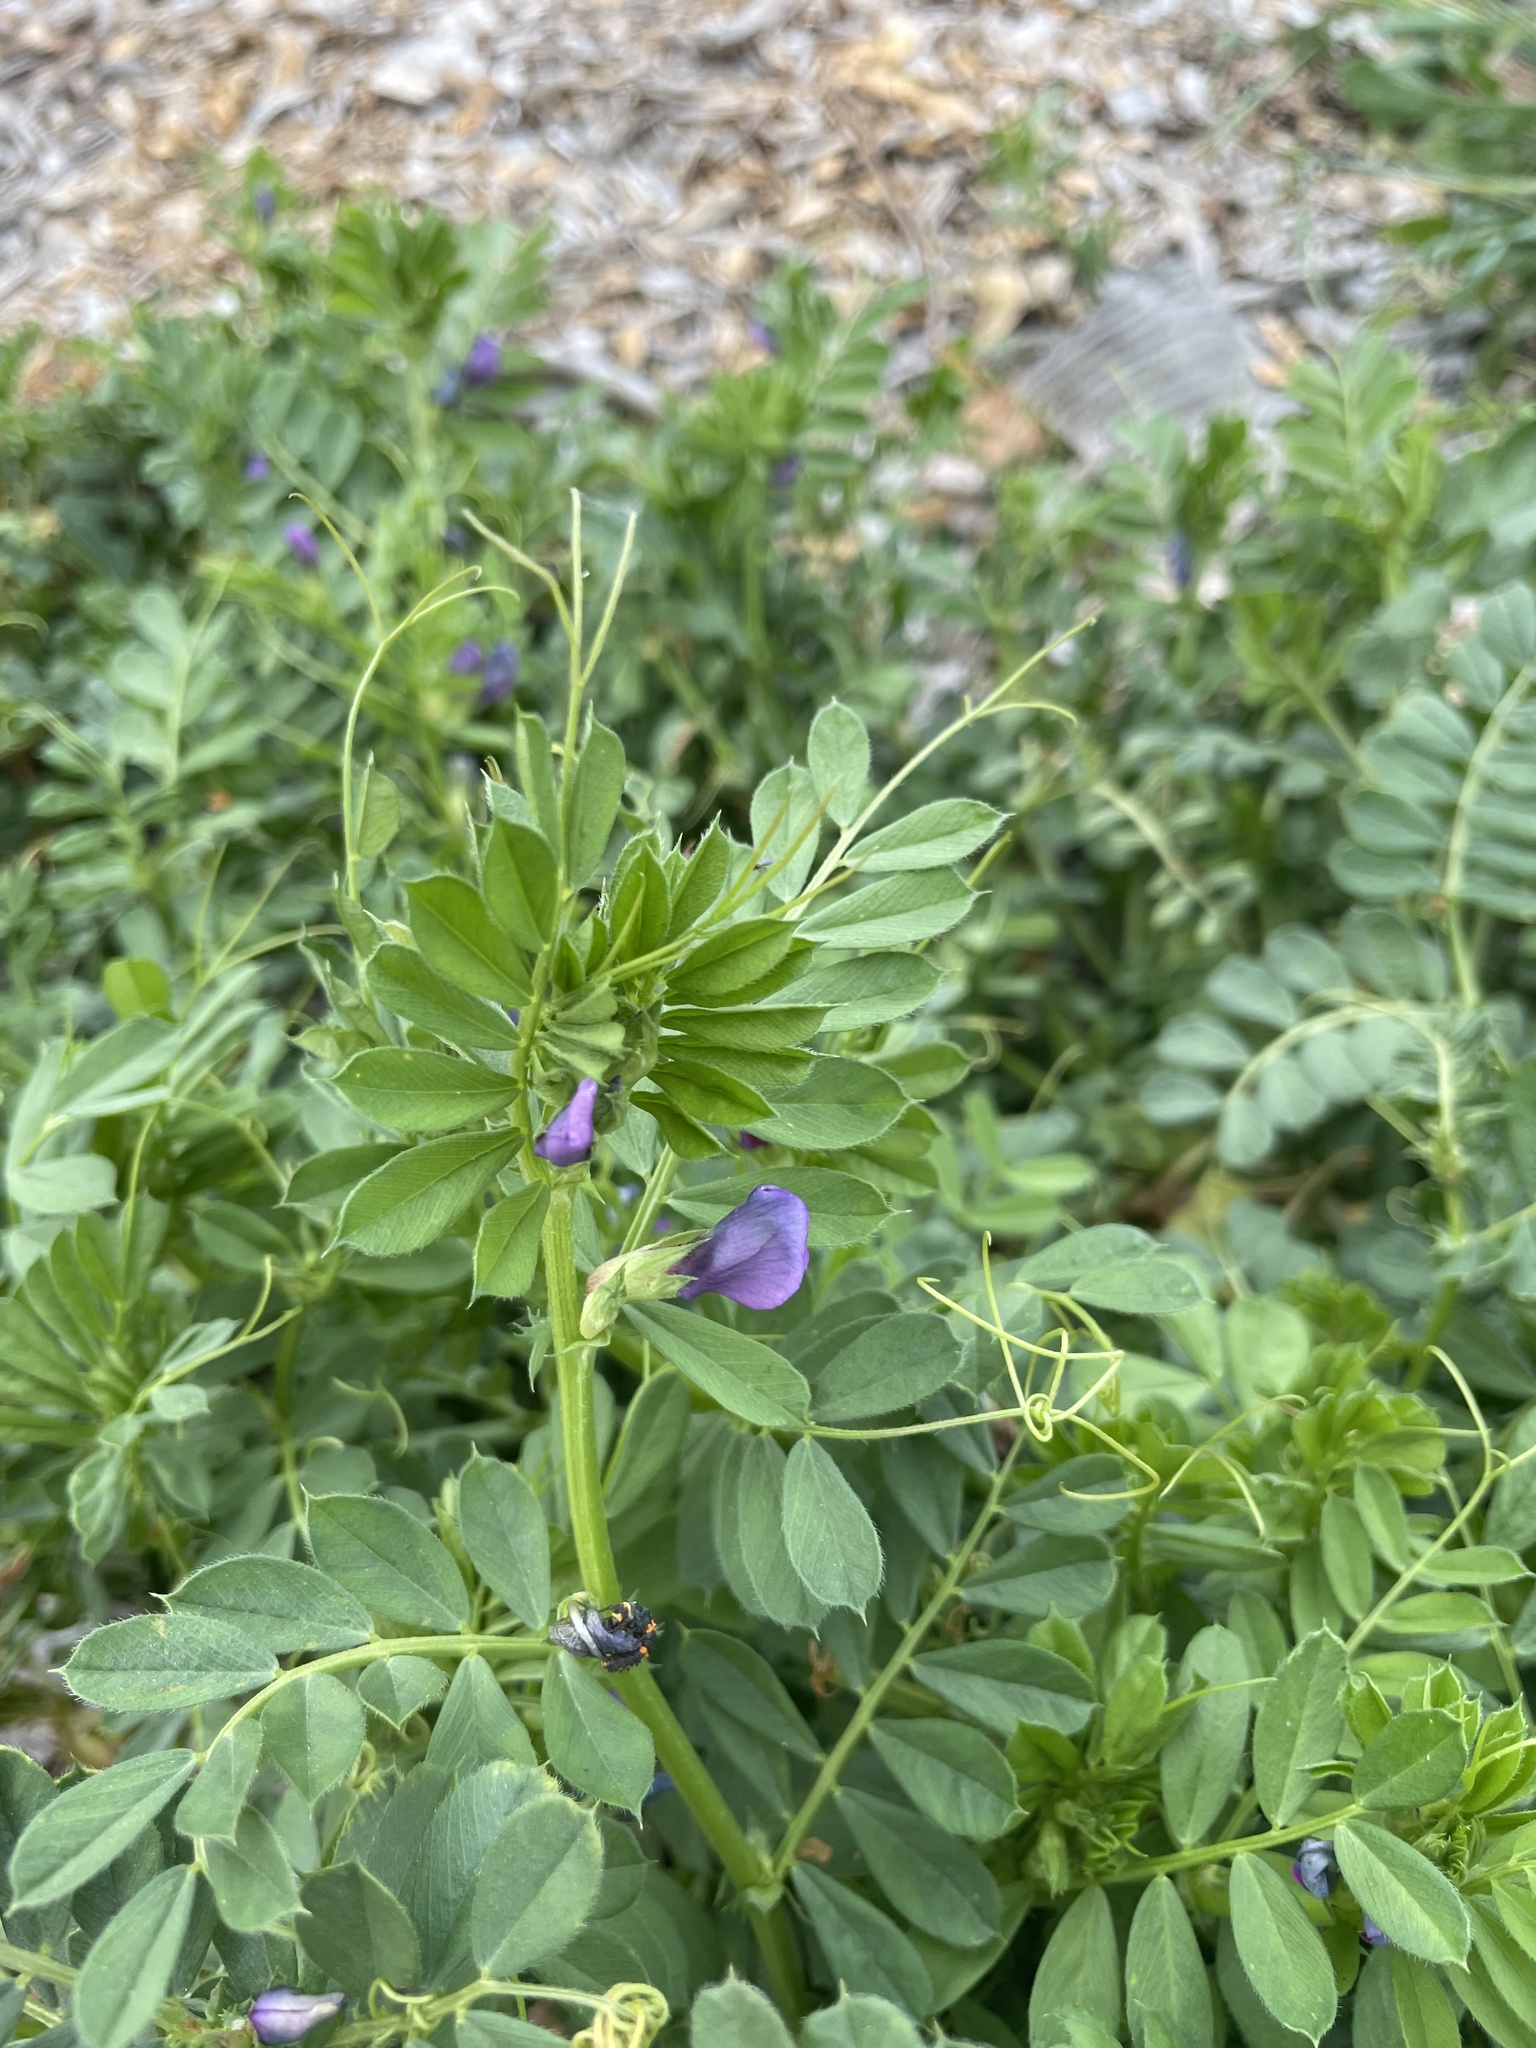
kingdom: Plantae
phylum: Tracheophyta
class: Magnoliopsida
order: Fabales
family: Fabaceae
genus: Vicia
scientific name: Vicia sativa
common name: Garden vetch
